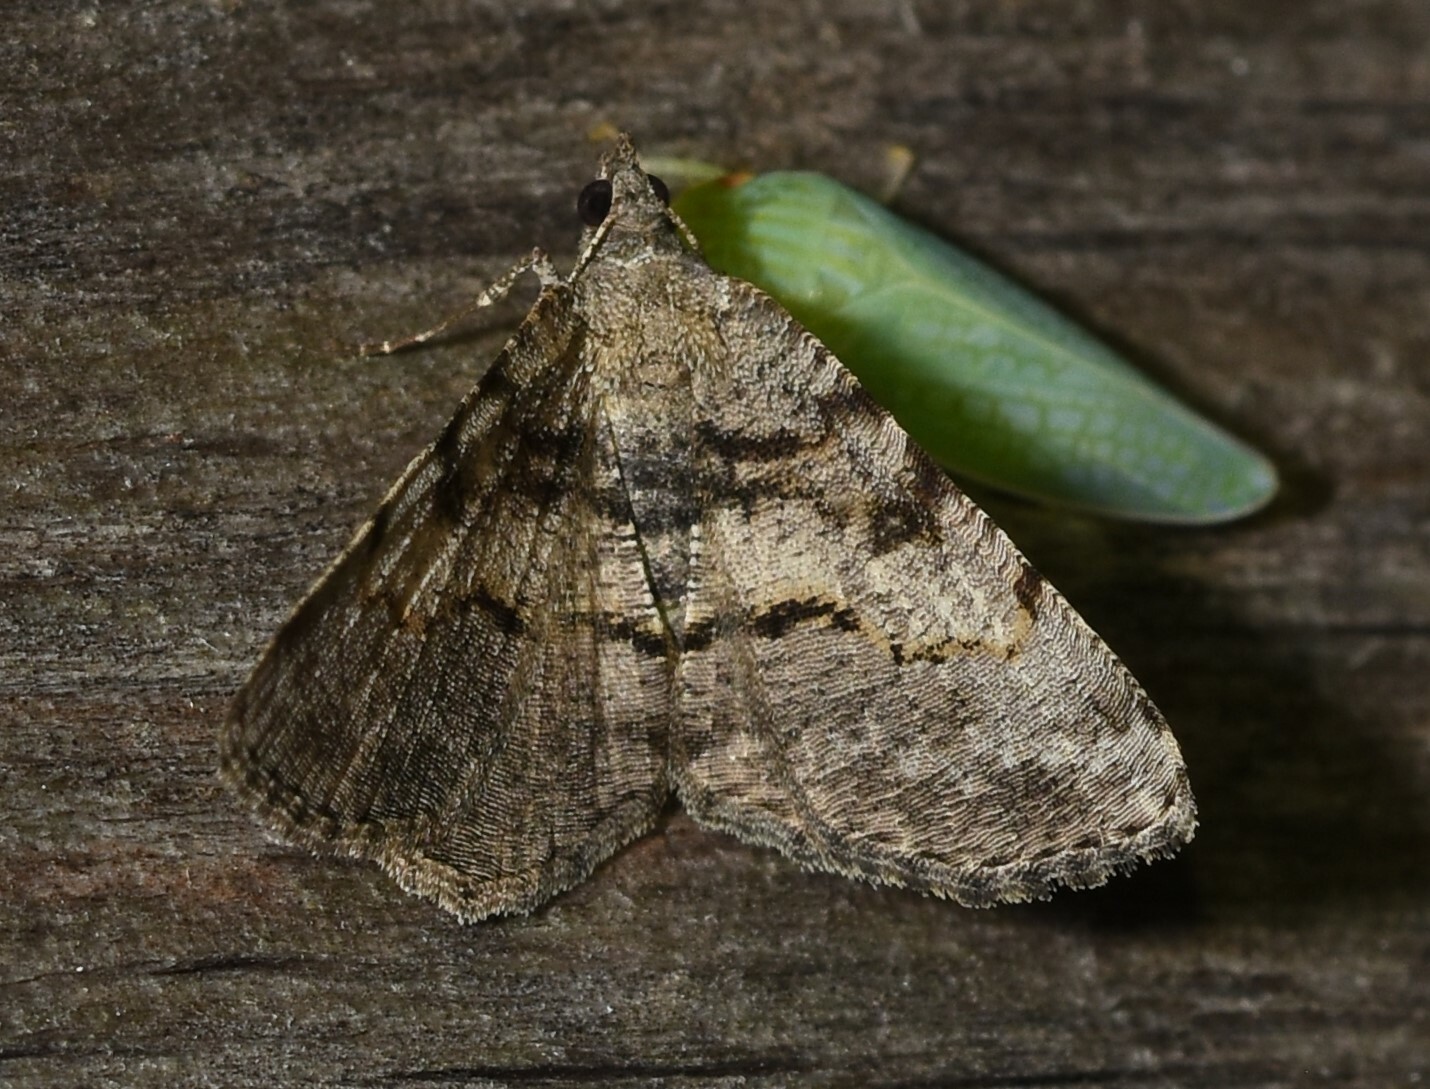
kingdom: Animalia
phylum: Arthropoda
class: Insecta
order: Lepidoptera
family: Geometridae
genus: Digrammia
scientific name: Digrammia gnophosaria
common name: Hollow-spotted angle
